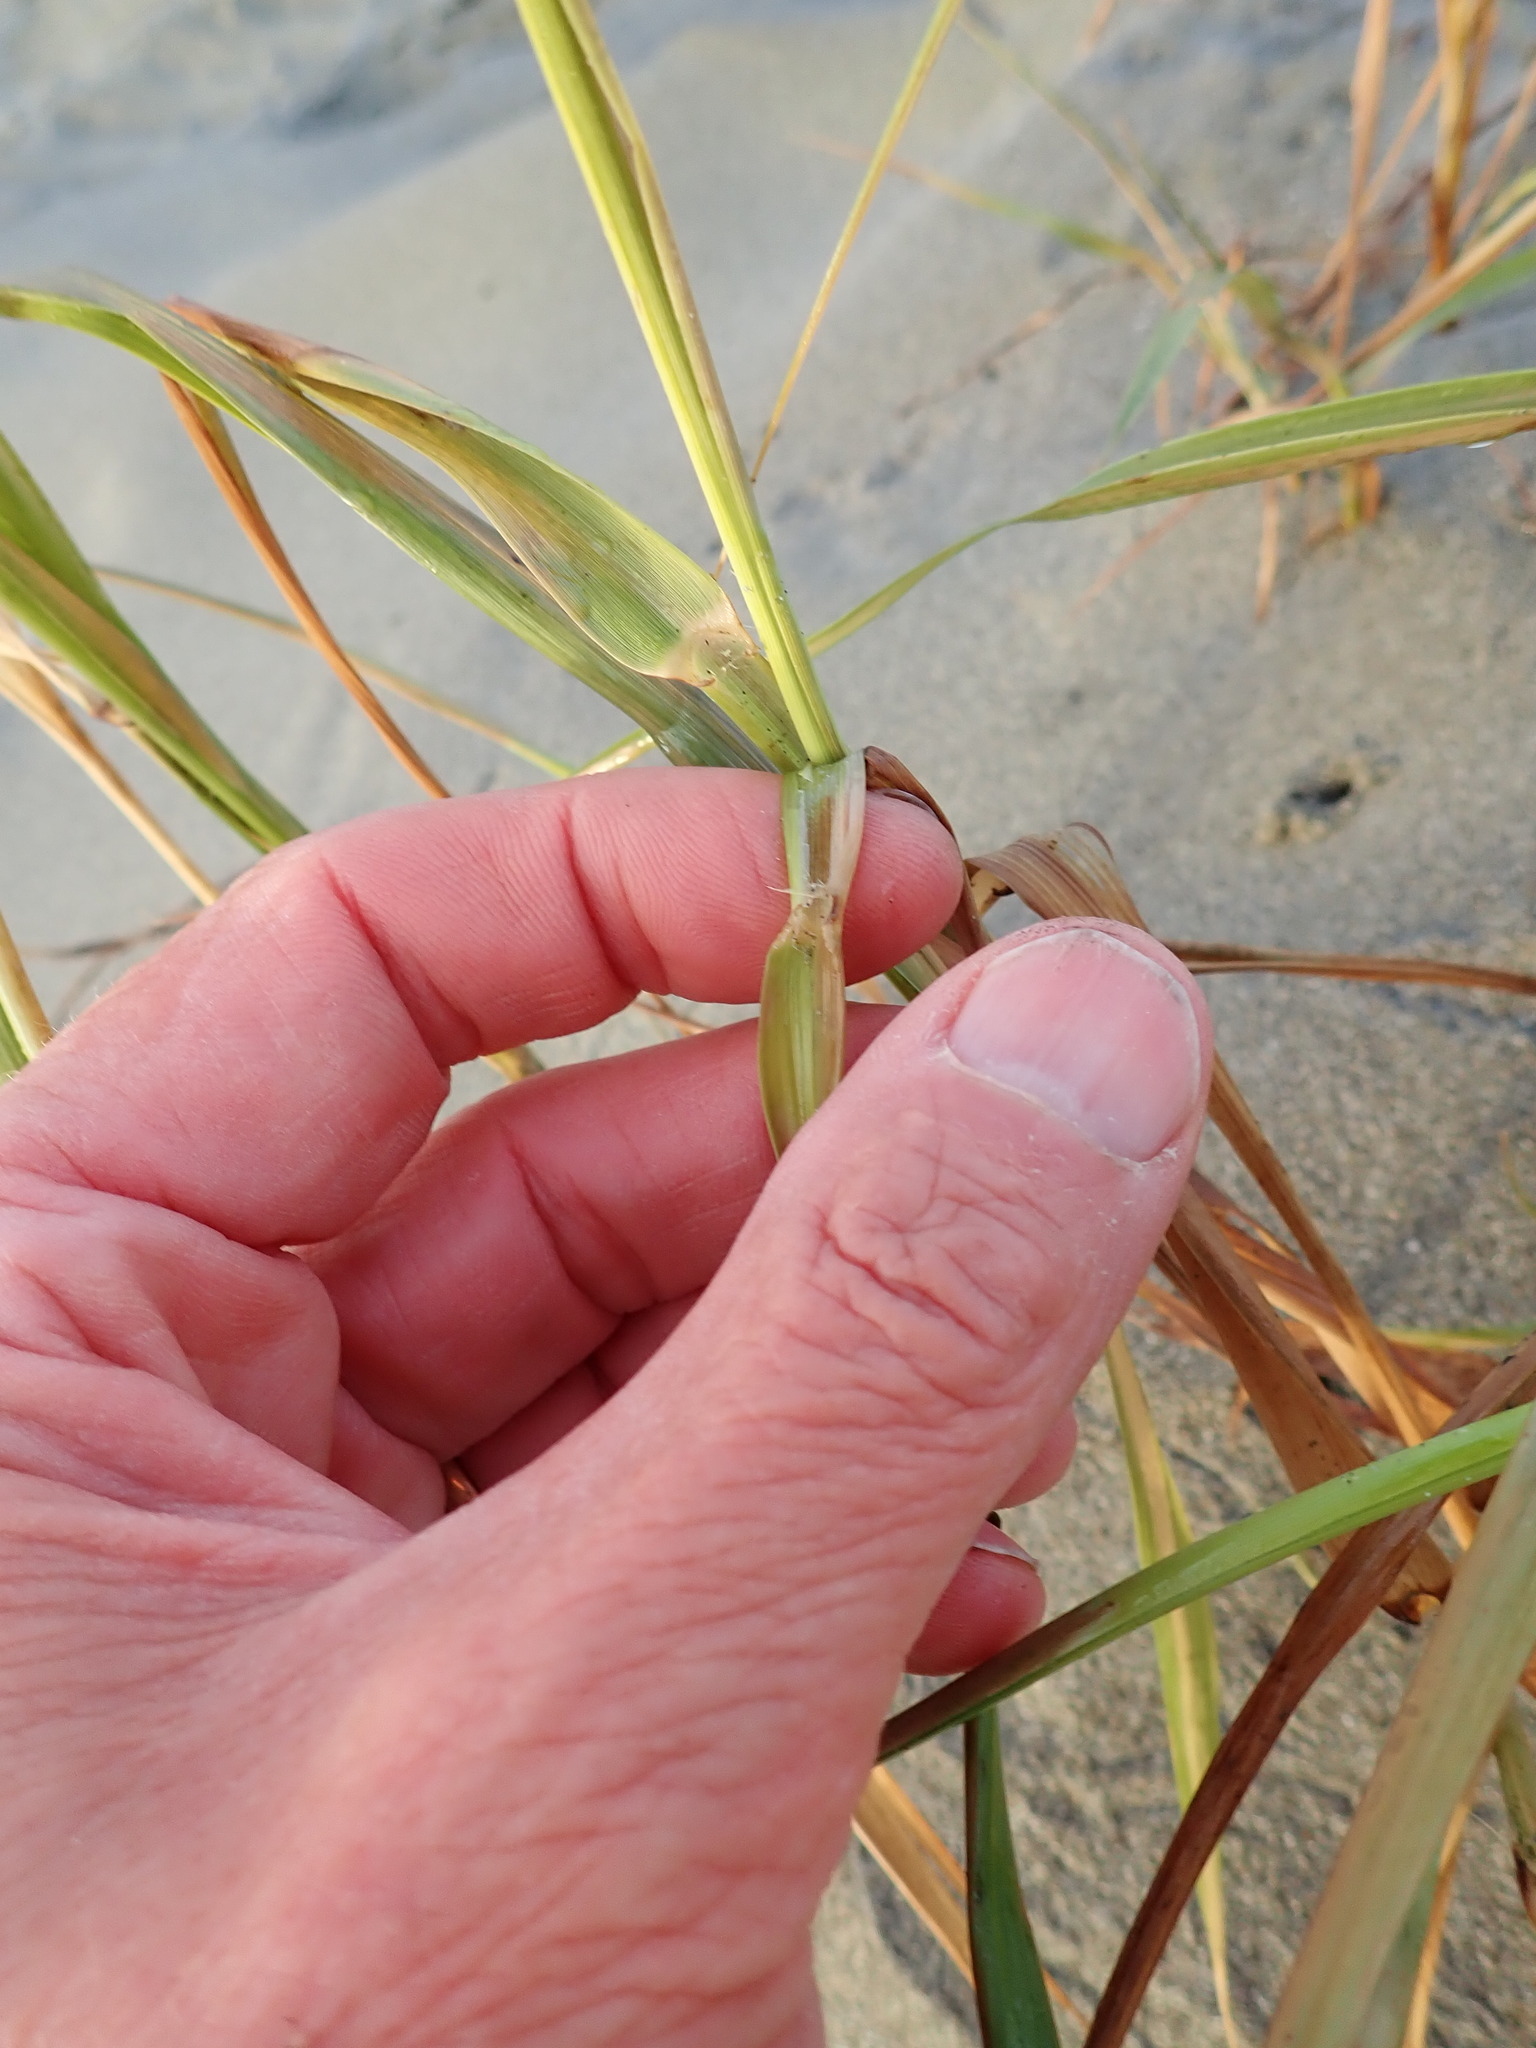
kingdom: Plantae
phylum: Tracheophyta
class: Liliopsida
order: Poales
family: Poaceae
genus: Phragmites
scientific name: Phragmites karka
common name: Tropical reed
